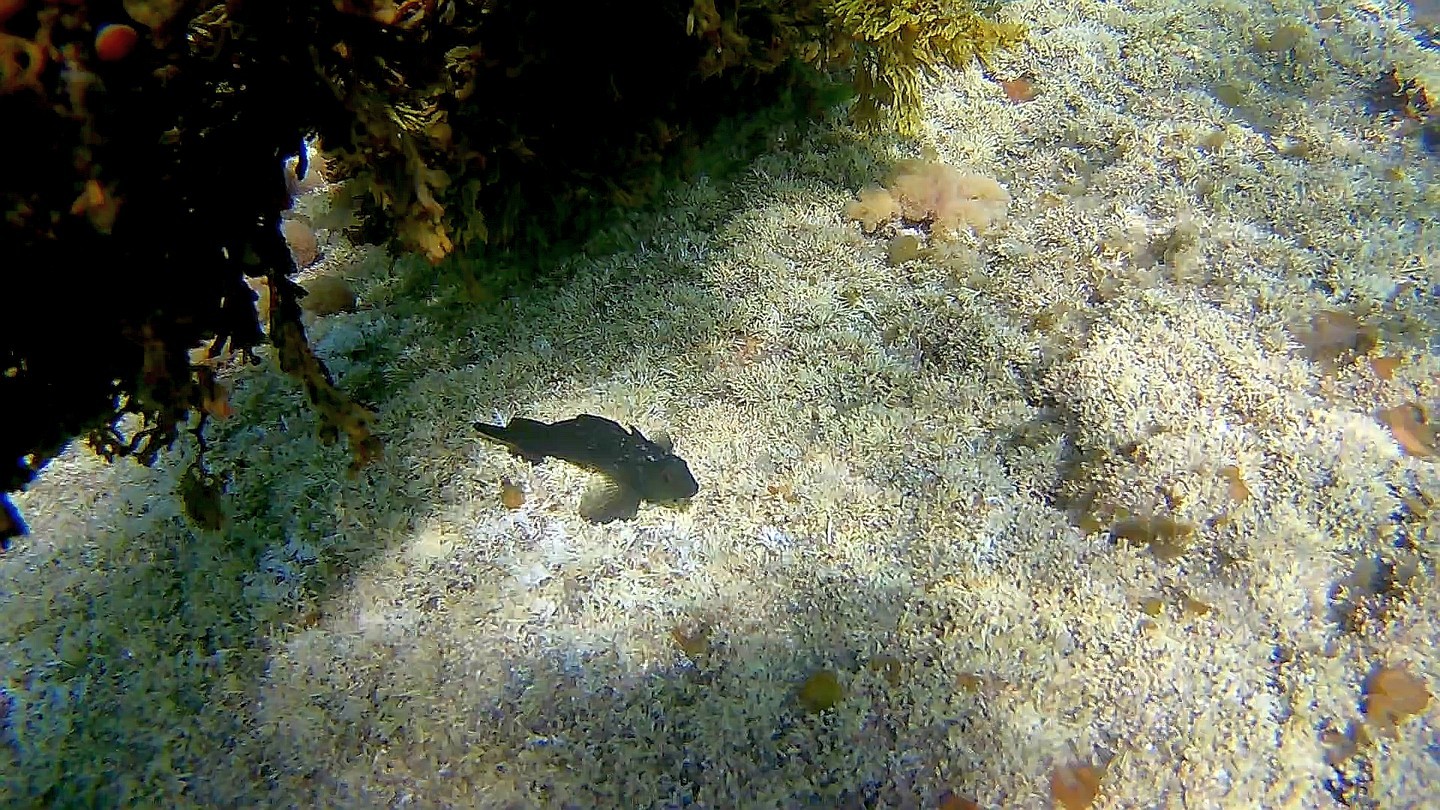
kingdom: Animalia
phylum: Chordata
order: Perciformes
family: Tripterygiidae
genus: Forsterygion
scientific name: Forsterygion lapillum
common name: Common triplefin
